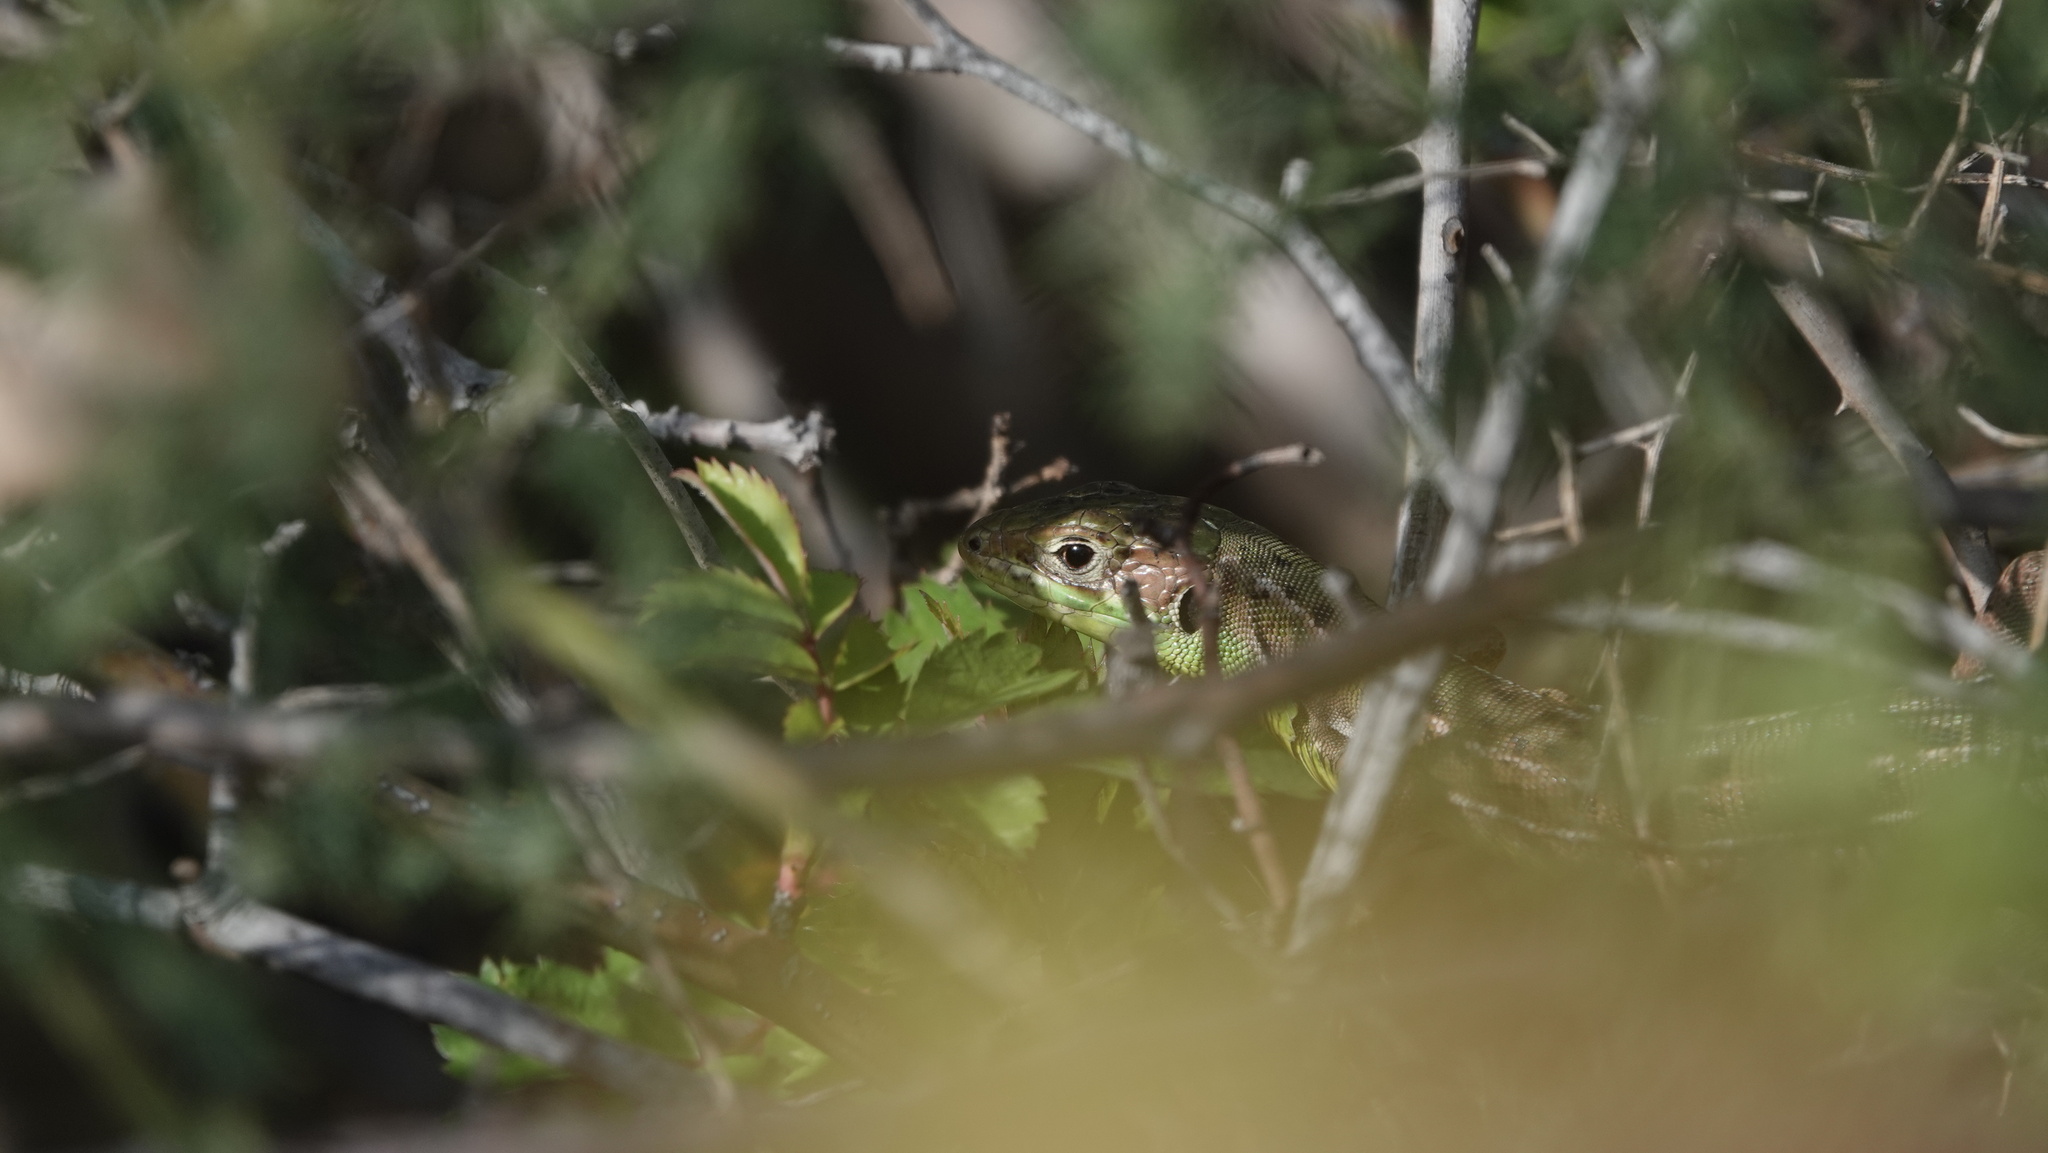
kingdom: Animalia
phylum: Chordata
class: Squamata
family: Lacertidae
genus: Lacerta
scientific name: Lacerta bilineata
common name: Western green lizard
